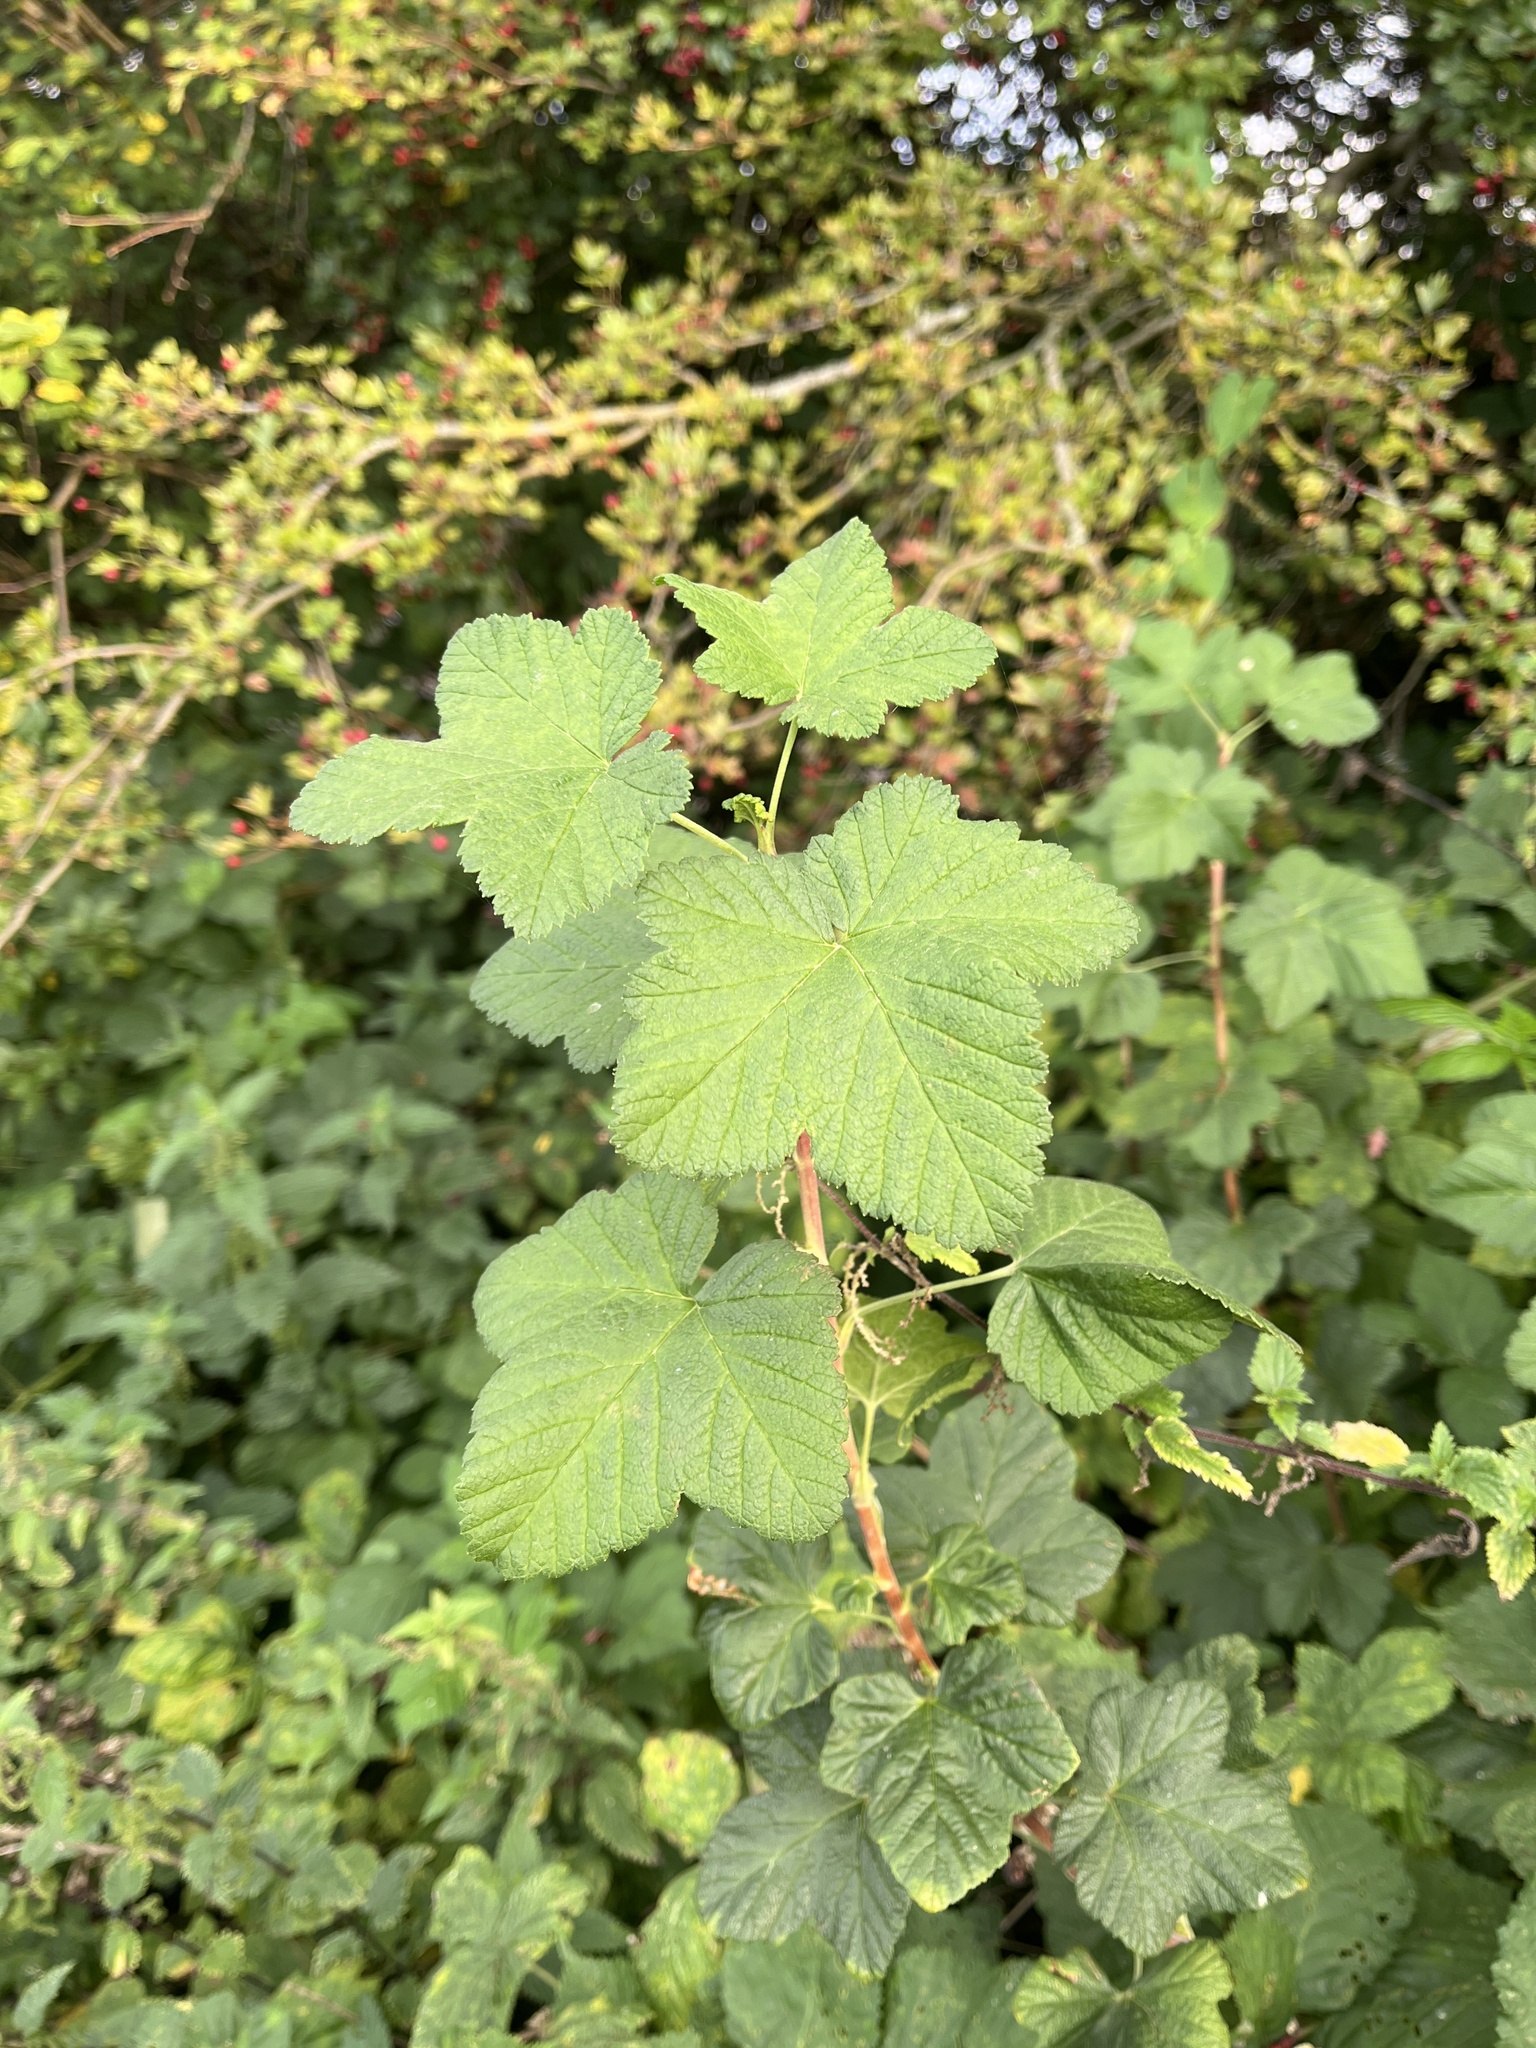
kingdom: Plantae
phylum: Tracheophyta
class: Magnoliopsida
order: Saxifragales
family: Grossulariaceae
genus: Ribes
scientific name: Ribes sanguineum
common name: Flowering currant
